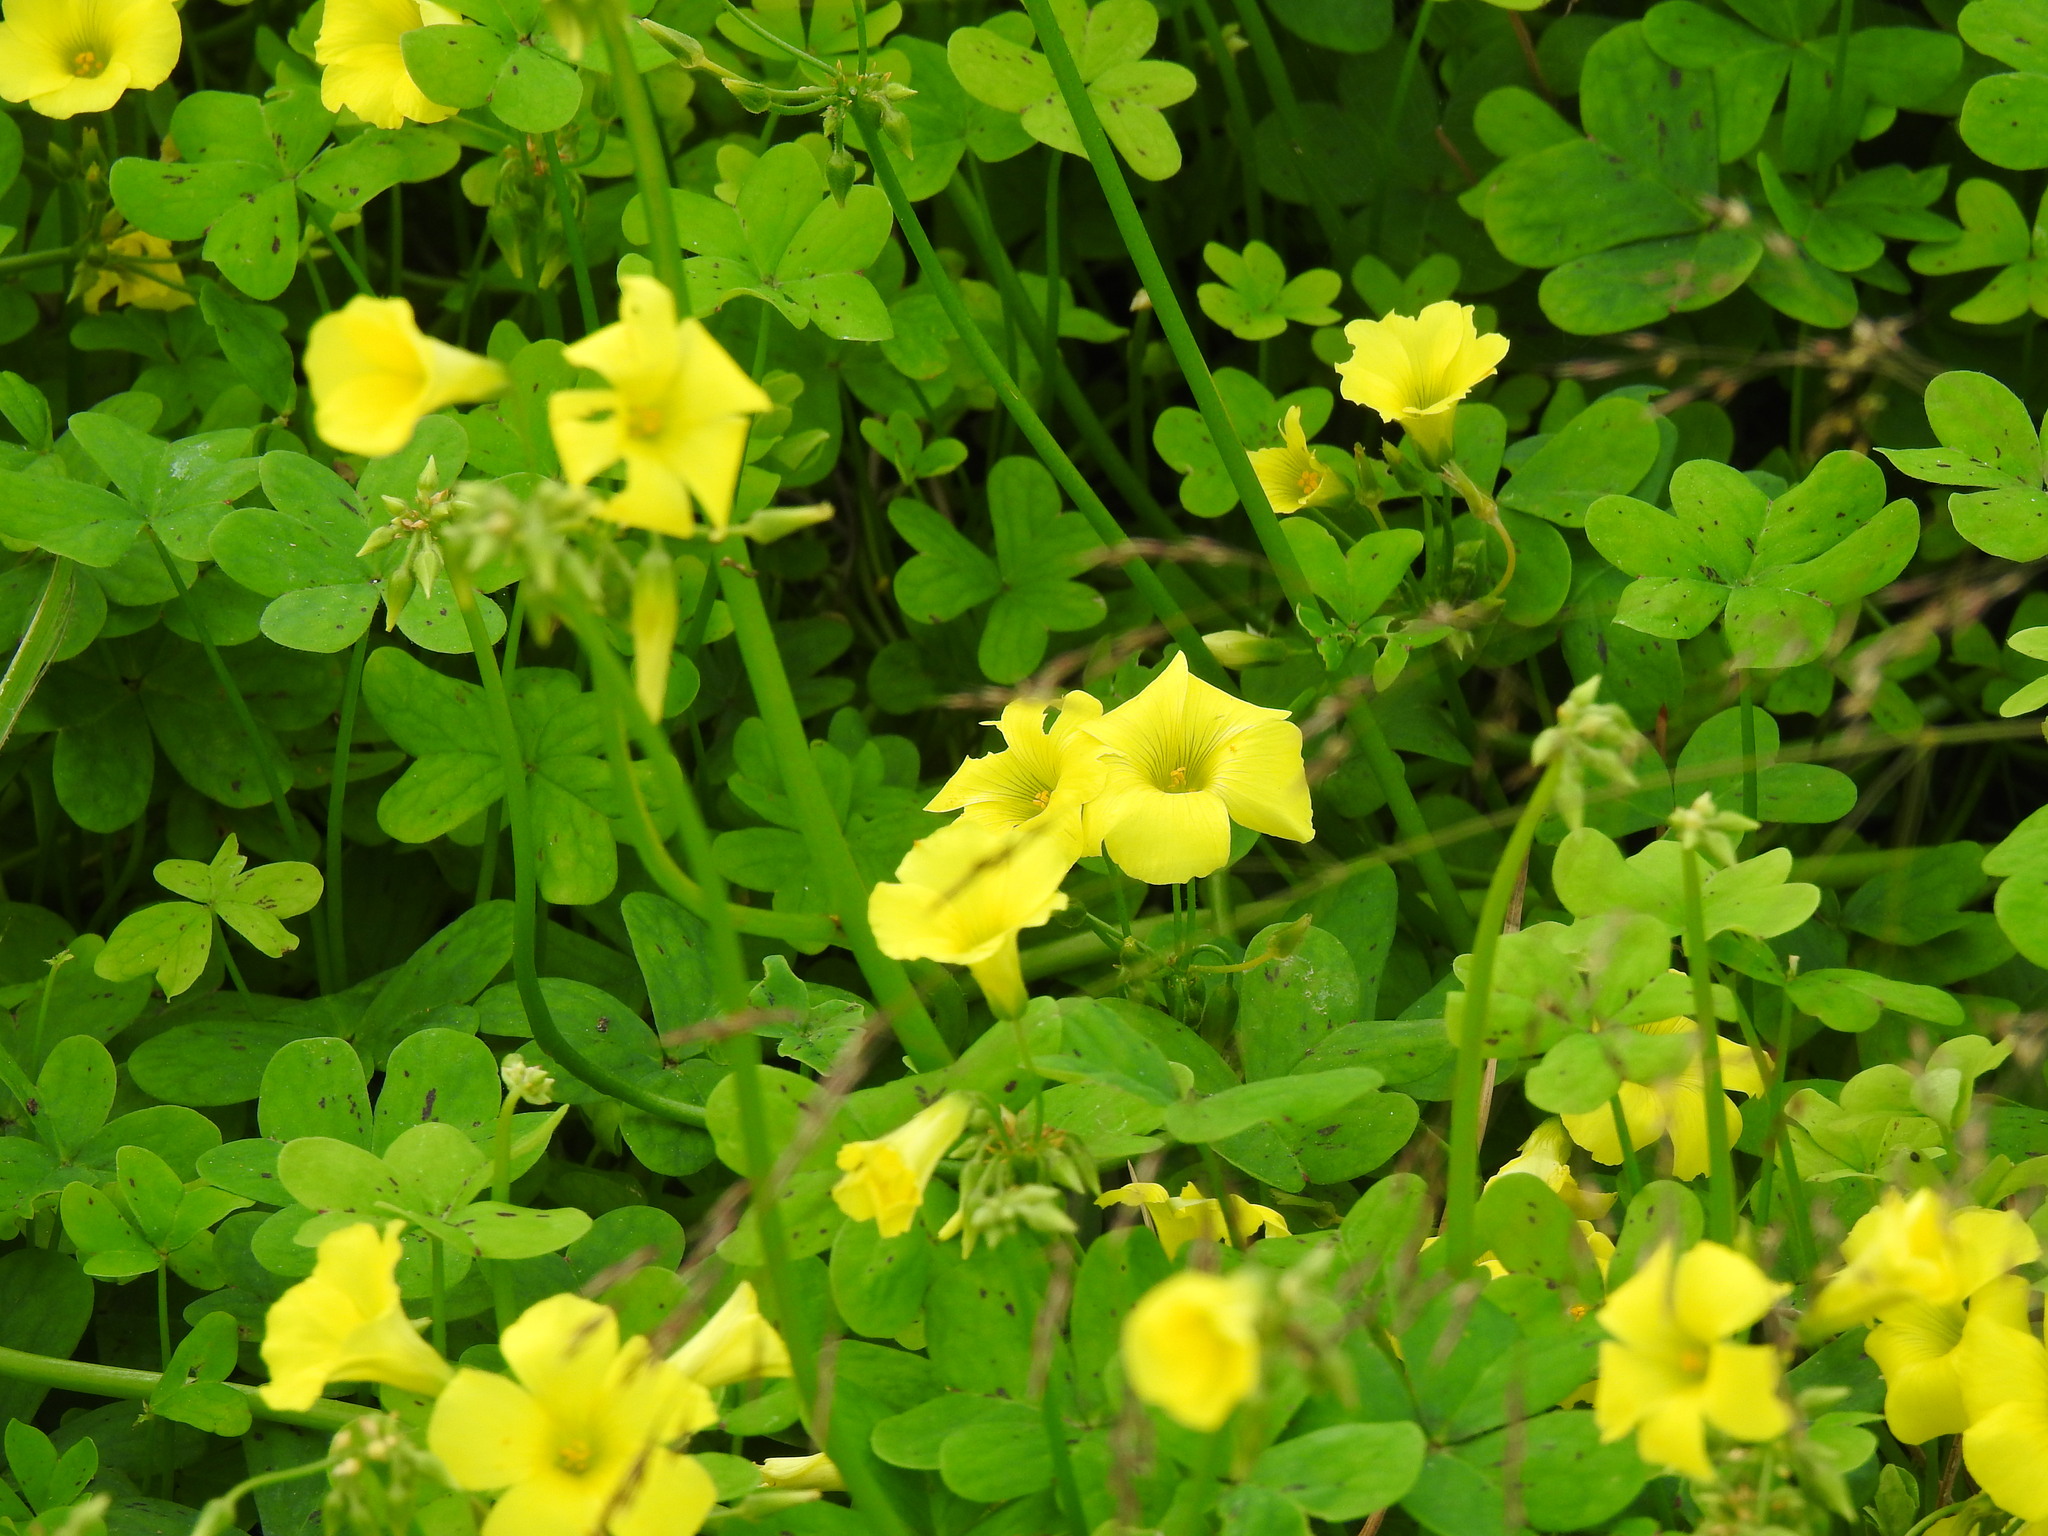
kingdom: Plantae
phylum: Tracheophyta
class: Magnoliopsida
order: Oxalidales
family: Oxalidaceae
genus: Oxalis
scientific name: Oxalis pes-caprae
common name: Bermuda-buttercup
